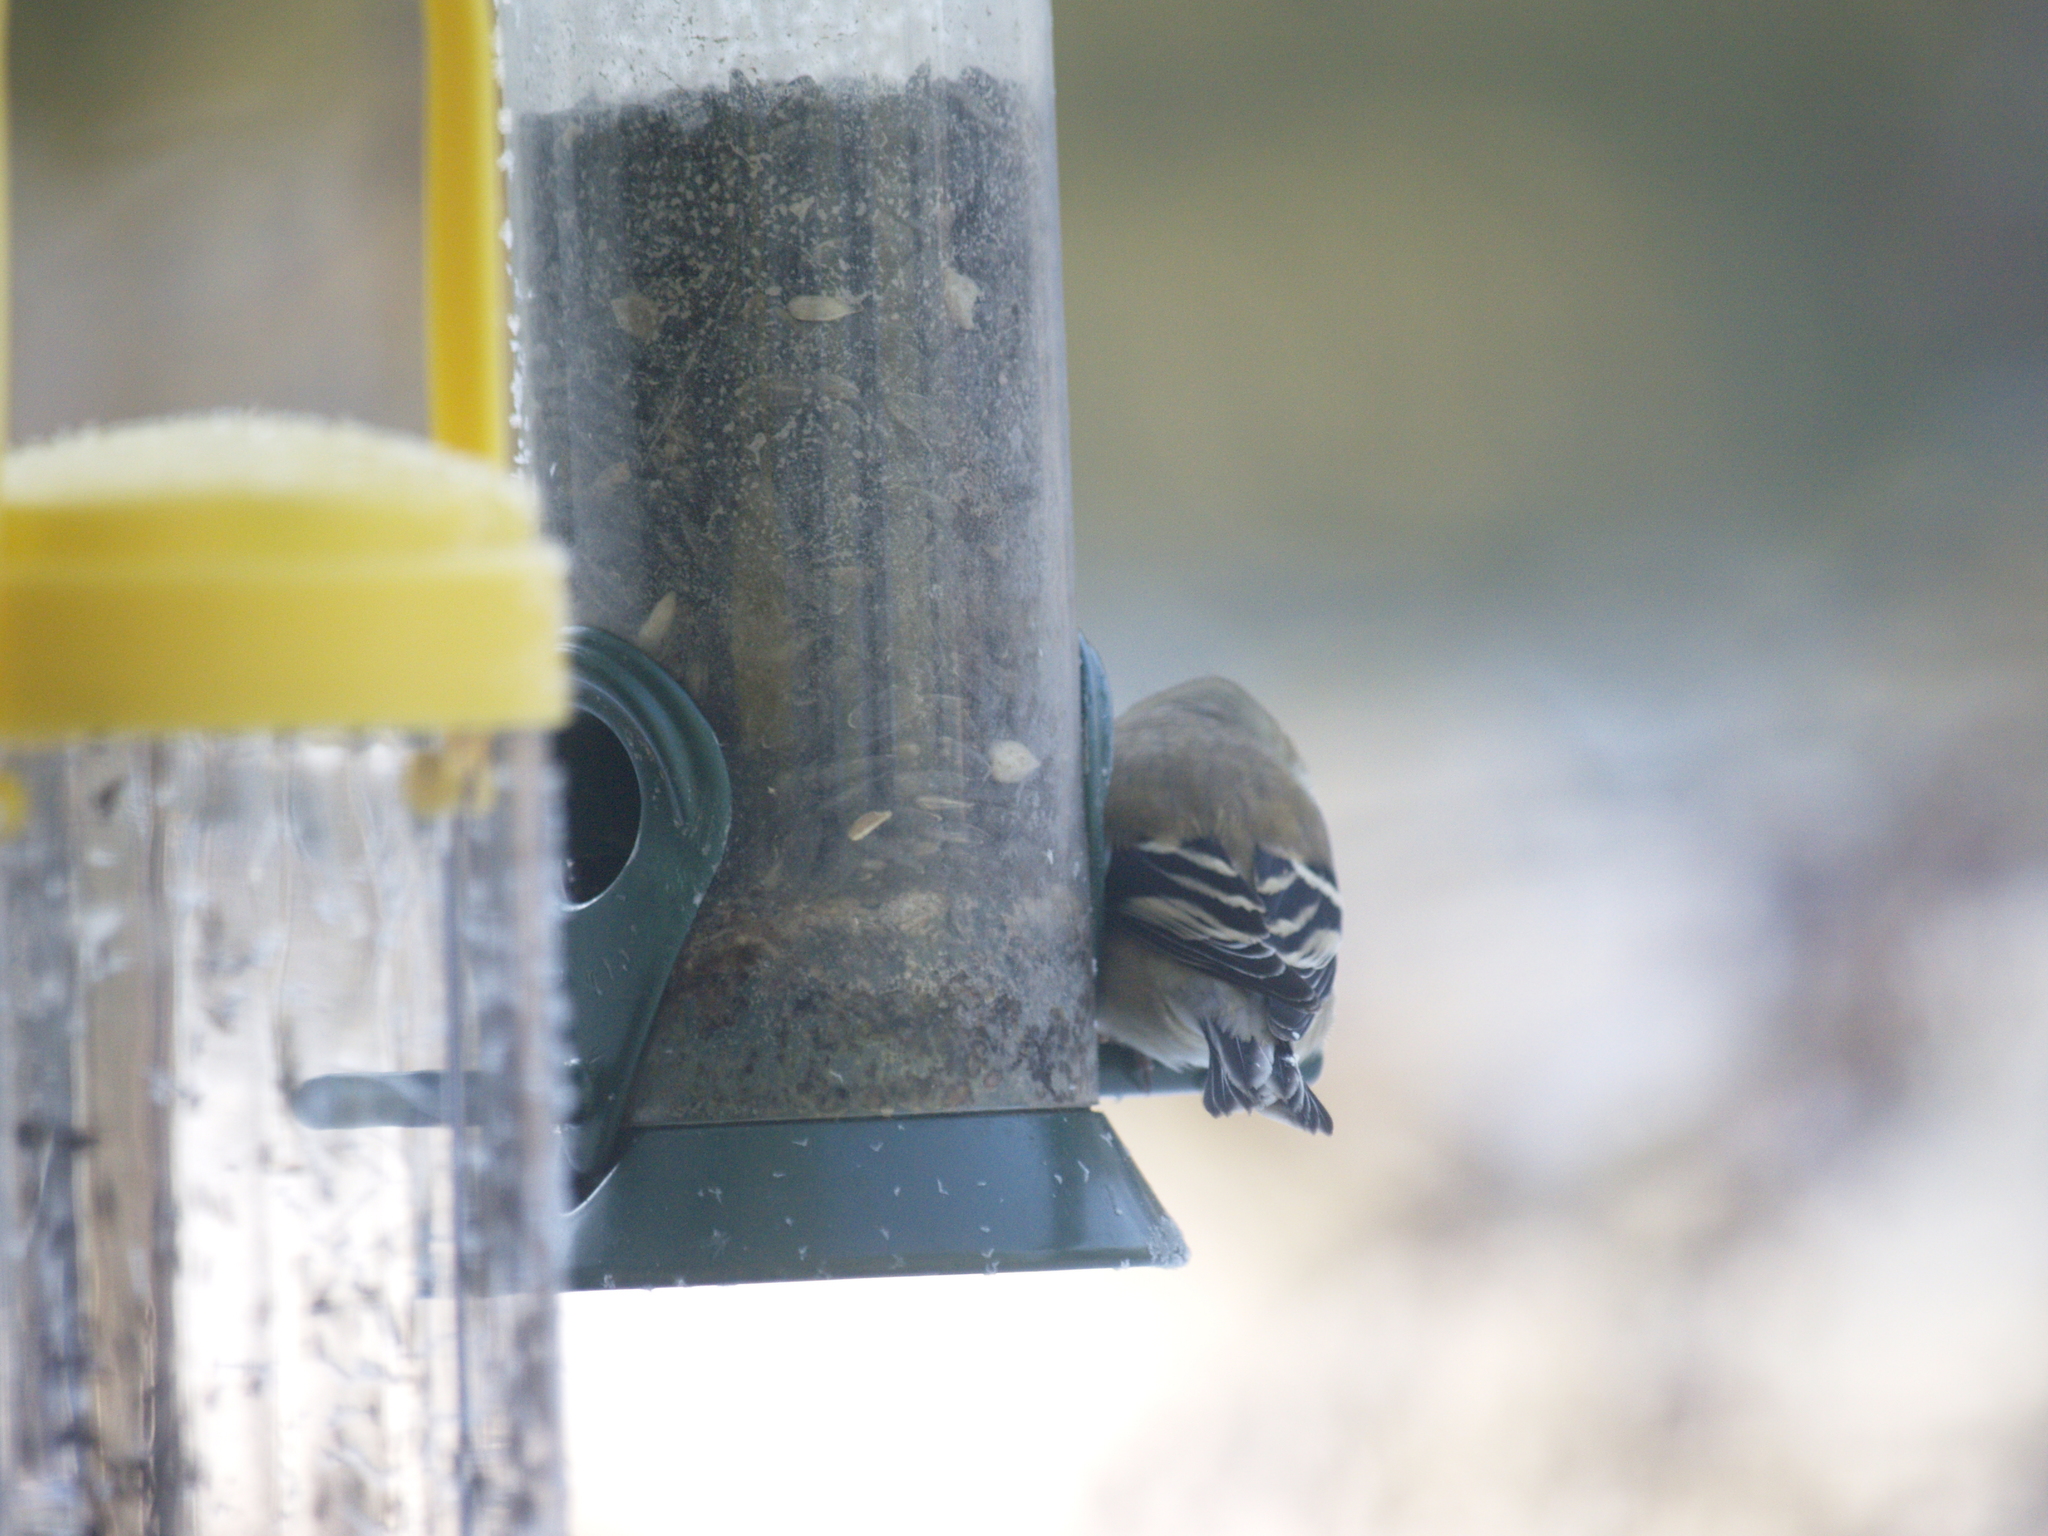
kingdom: Animalia
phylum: Chordata
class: Aves
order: Passeriformes
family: Fringillidae
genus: Spinus
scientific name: Spinus tristis
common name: American goldfinch
